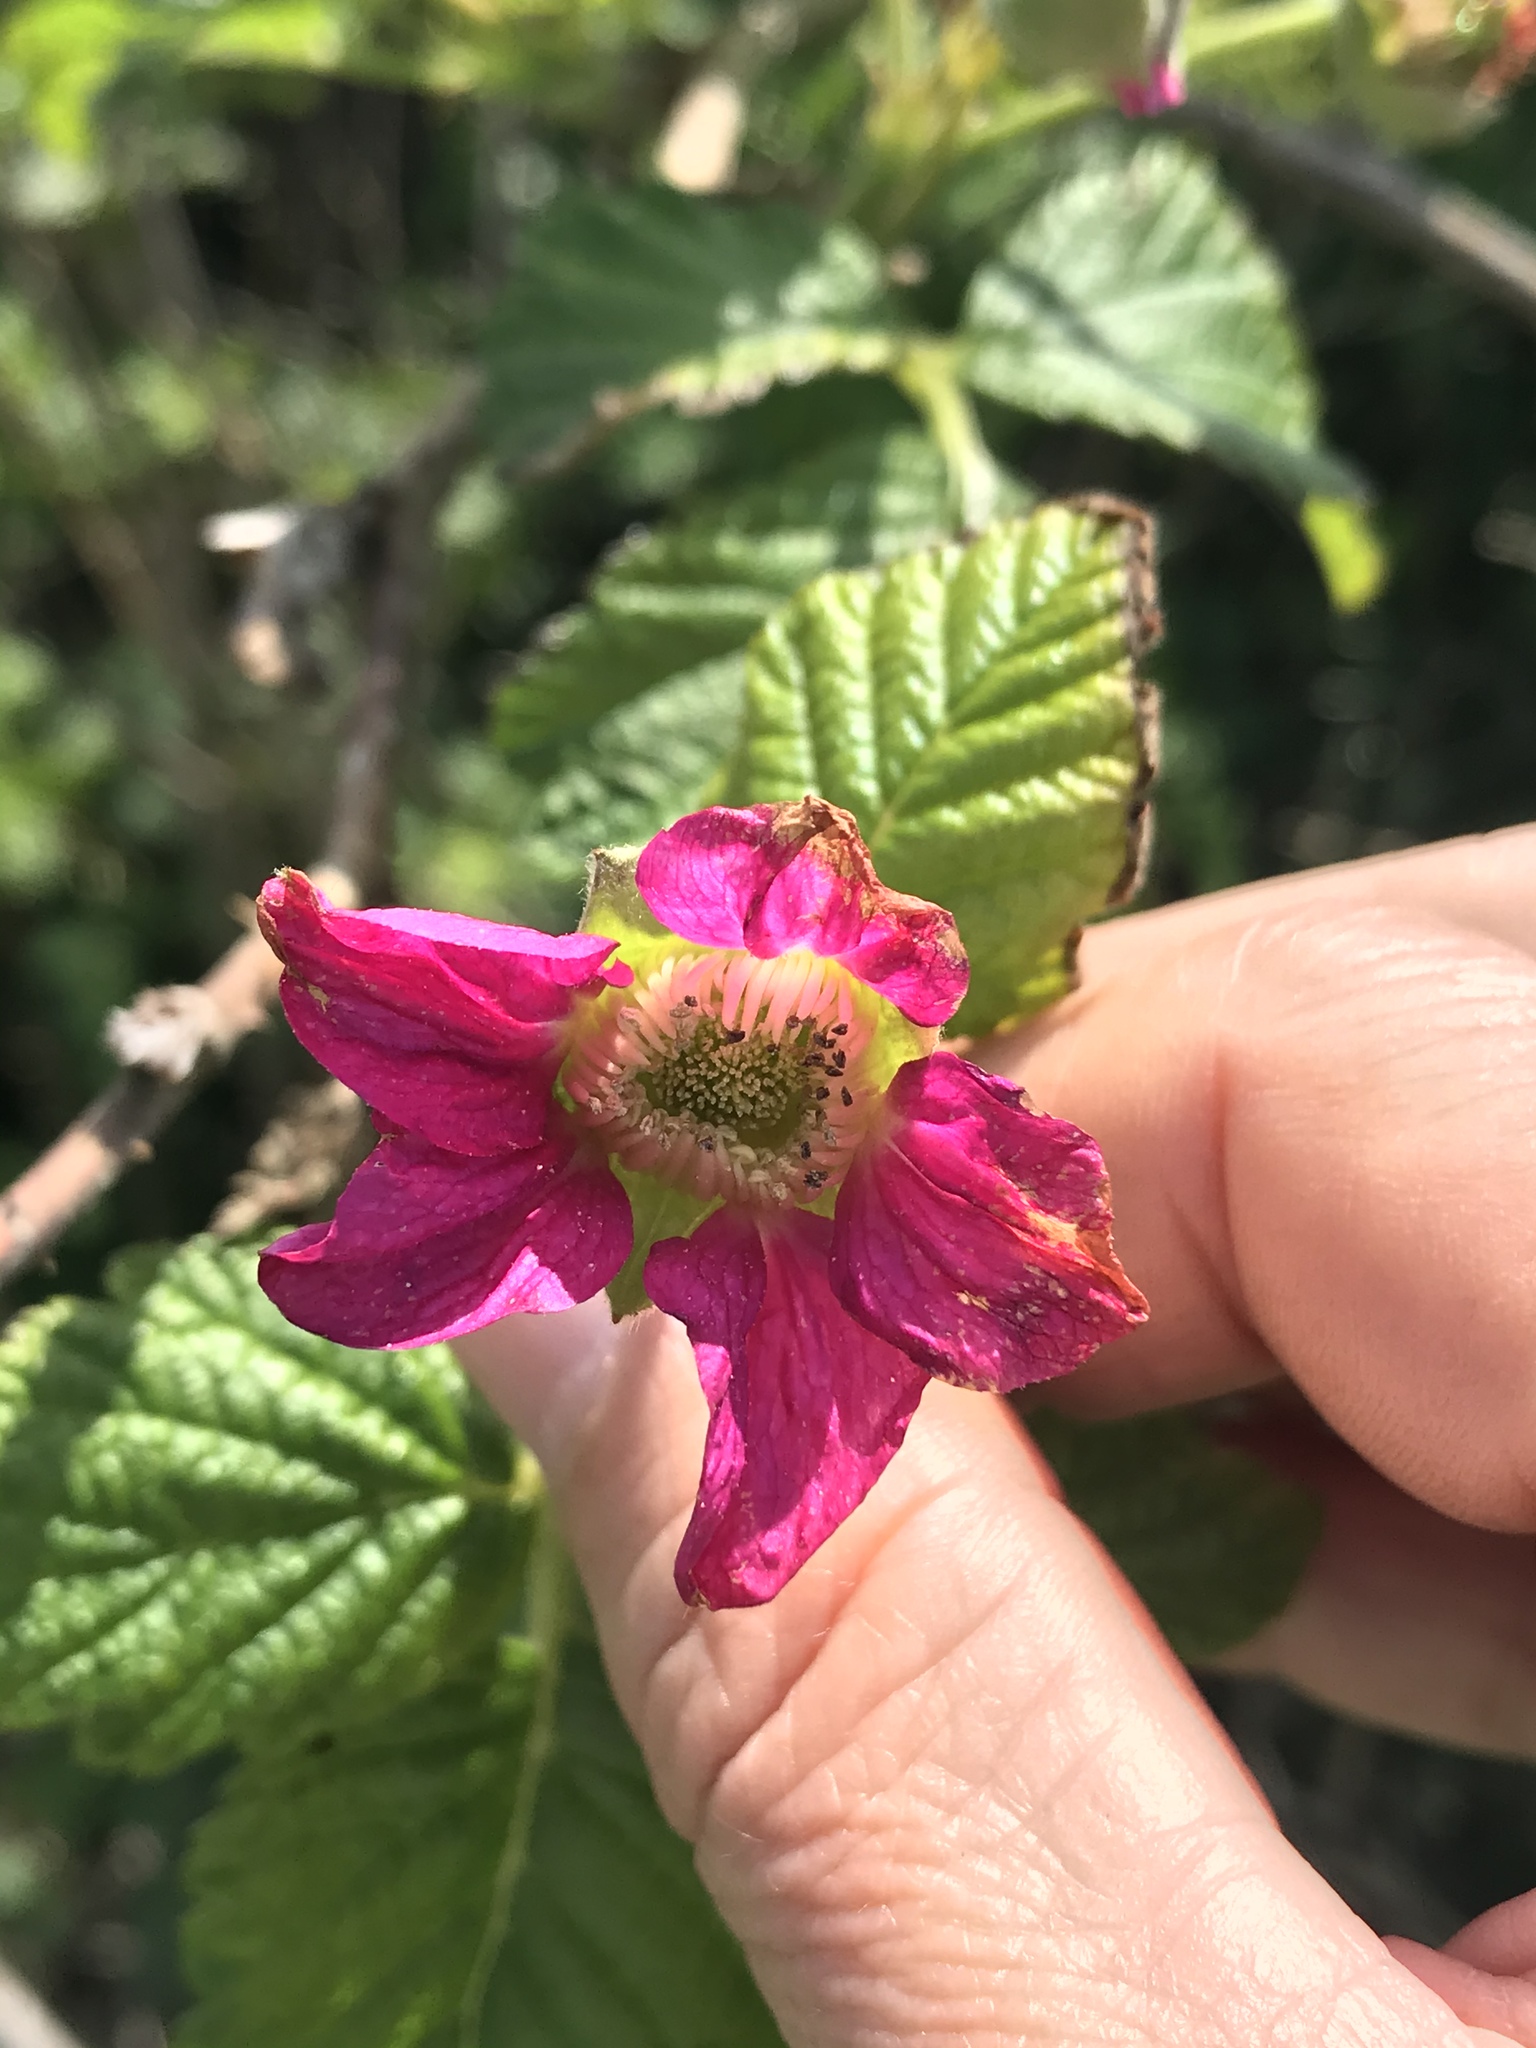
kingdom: Plantae
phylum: Tracheophyta
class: Magnoliopsida
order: Rosales
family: Rosaceae
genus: Rubus
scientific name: Rubus spectabilis
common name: Salmonberry
